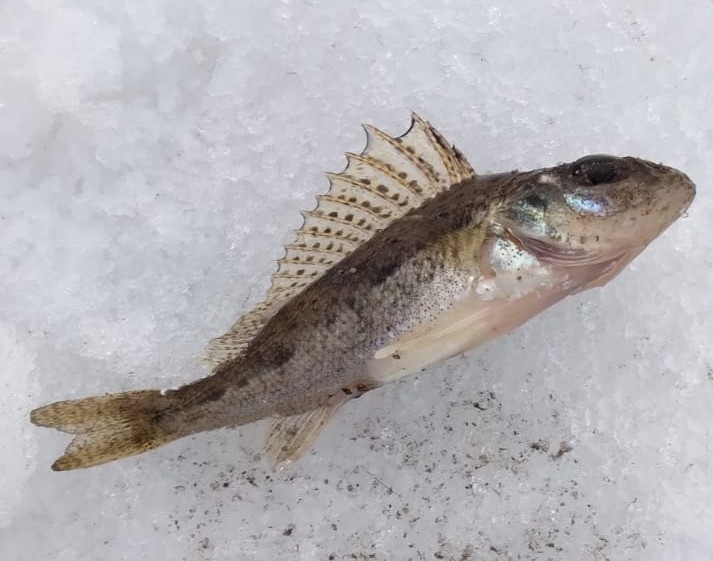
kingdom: Animalia
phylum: Chordata
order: Perciformes
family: Percidae
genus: Gymnocephalus
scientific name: Gymnocephalus cernua
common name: Ruffe
